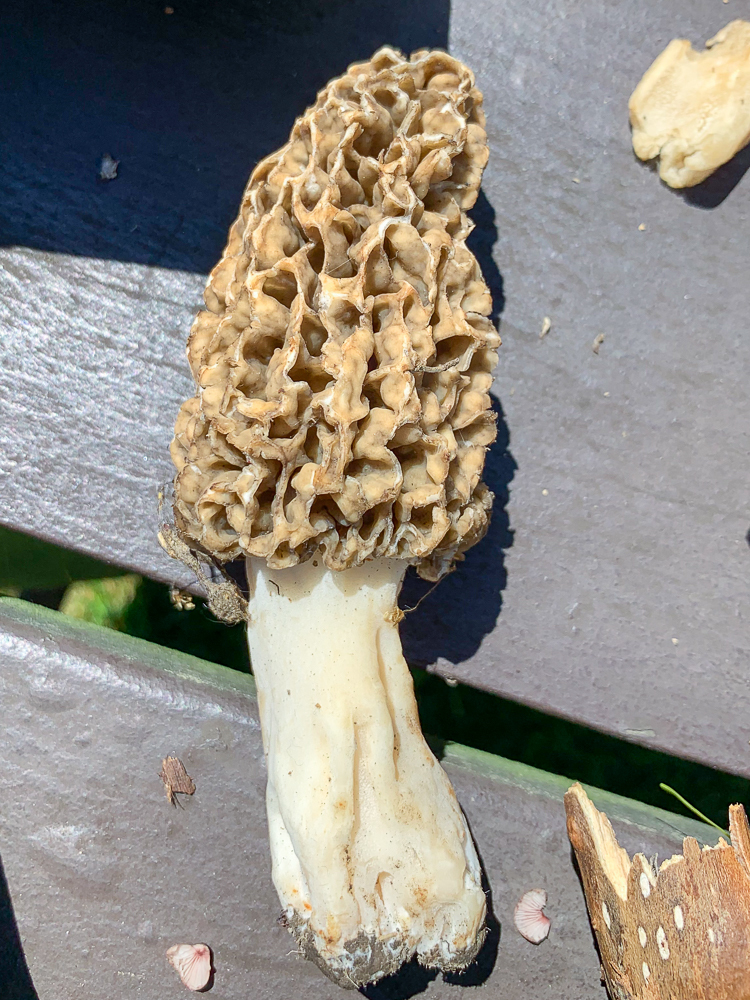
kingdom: Fungi
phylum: Ascomycota
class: Pezizomycetes
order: Pezizales
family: Morchellaceae
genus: Morchella
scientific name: Morchella americana
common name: White morel
